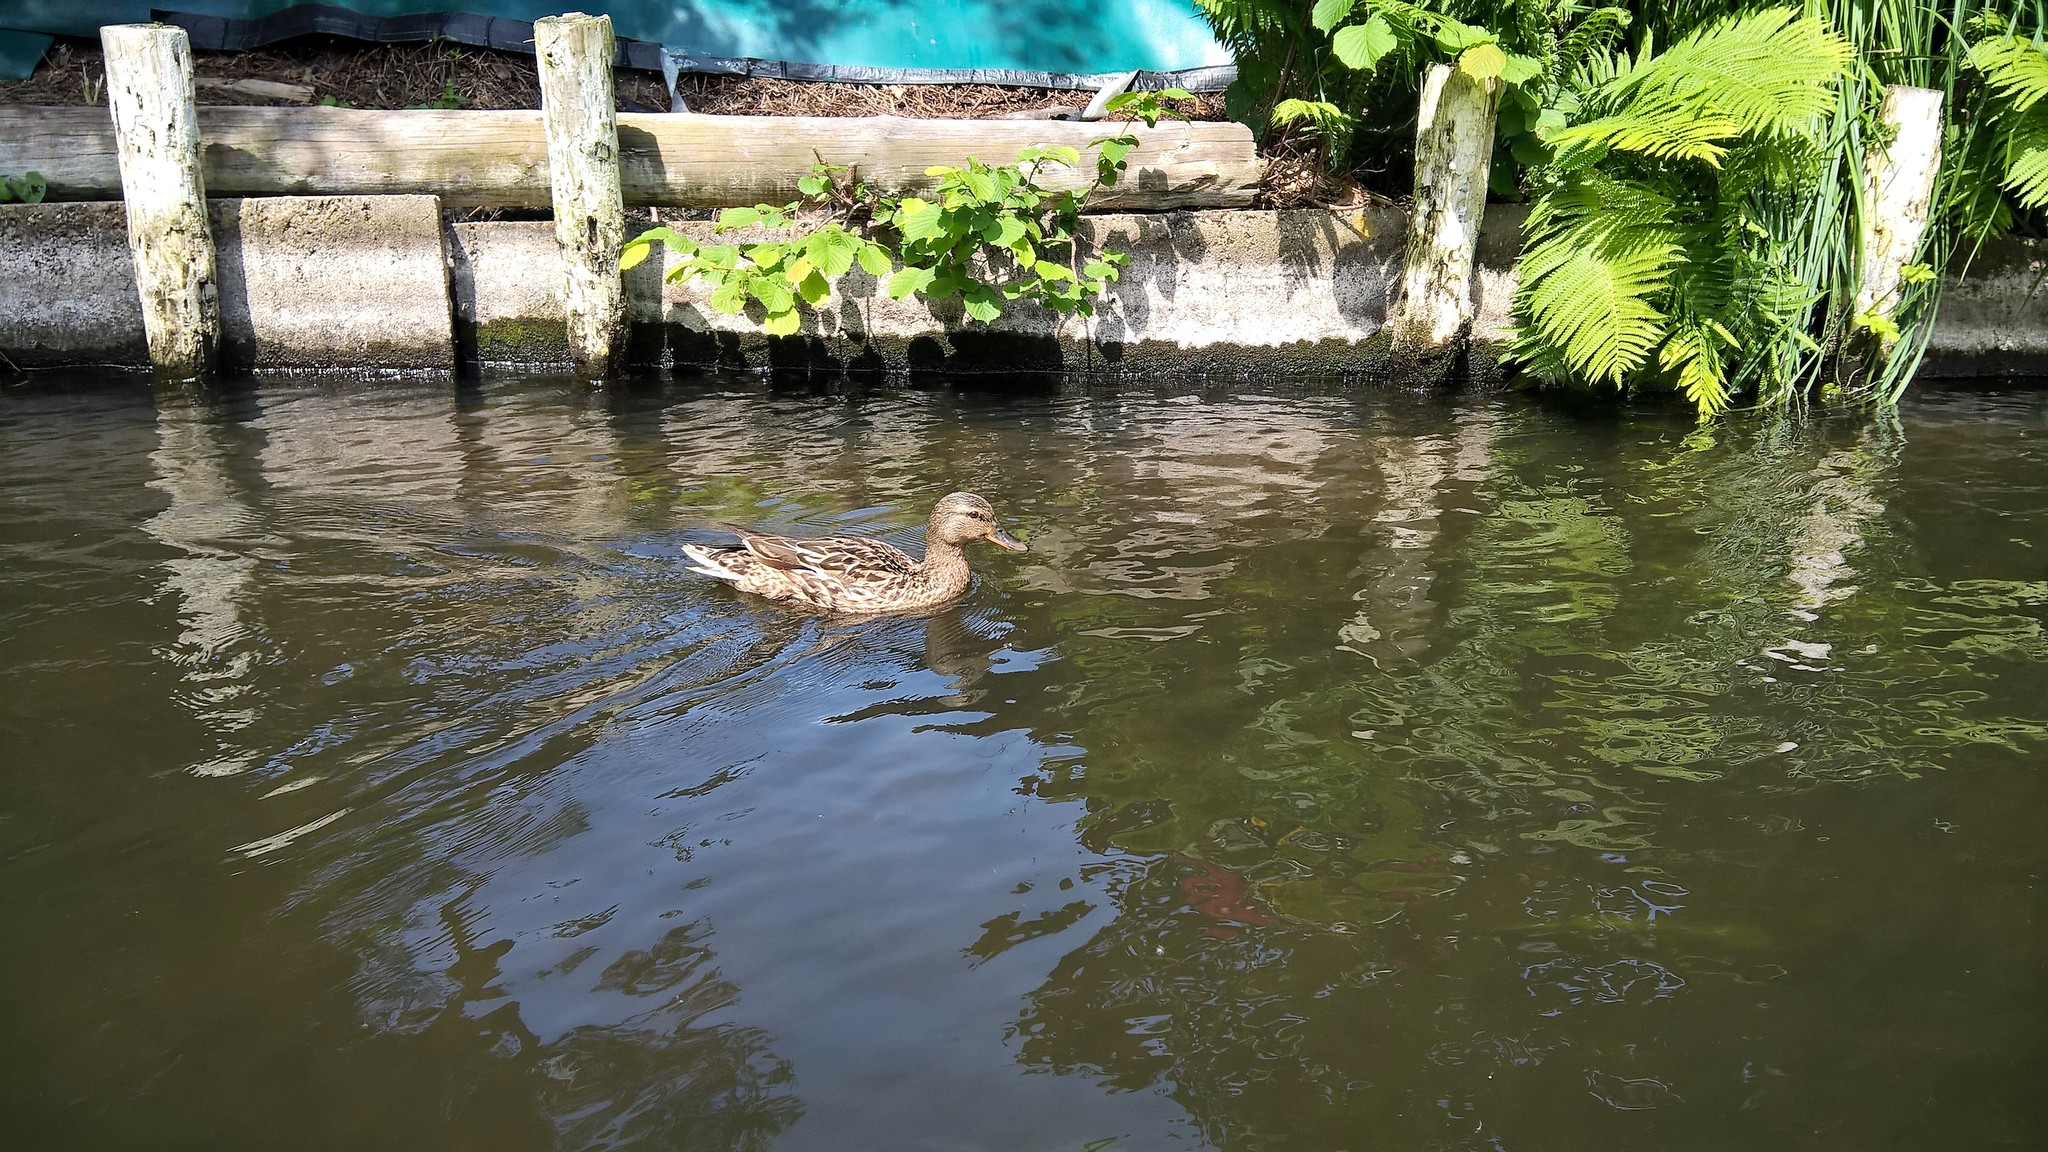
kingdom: Animalia
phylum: Chordata
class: Aves
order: Anseriformes
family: Anatidae
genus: Anas
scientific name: Anas platyrhynchos
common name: Mallard
